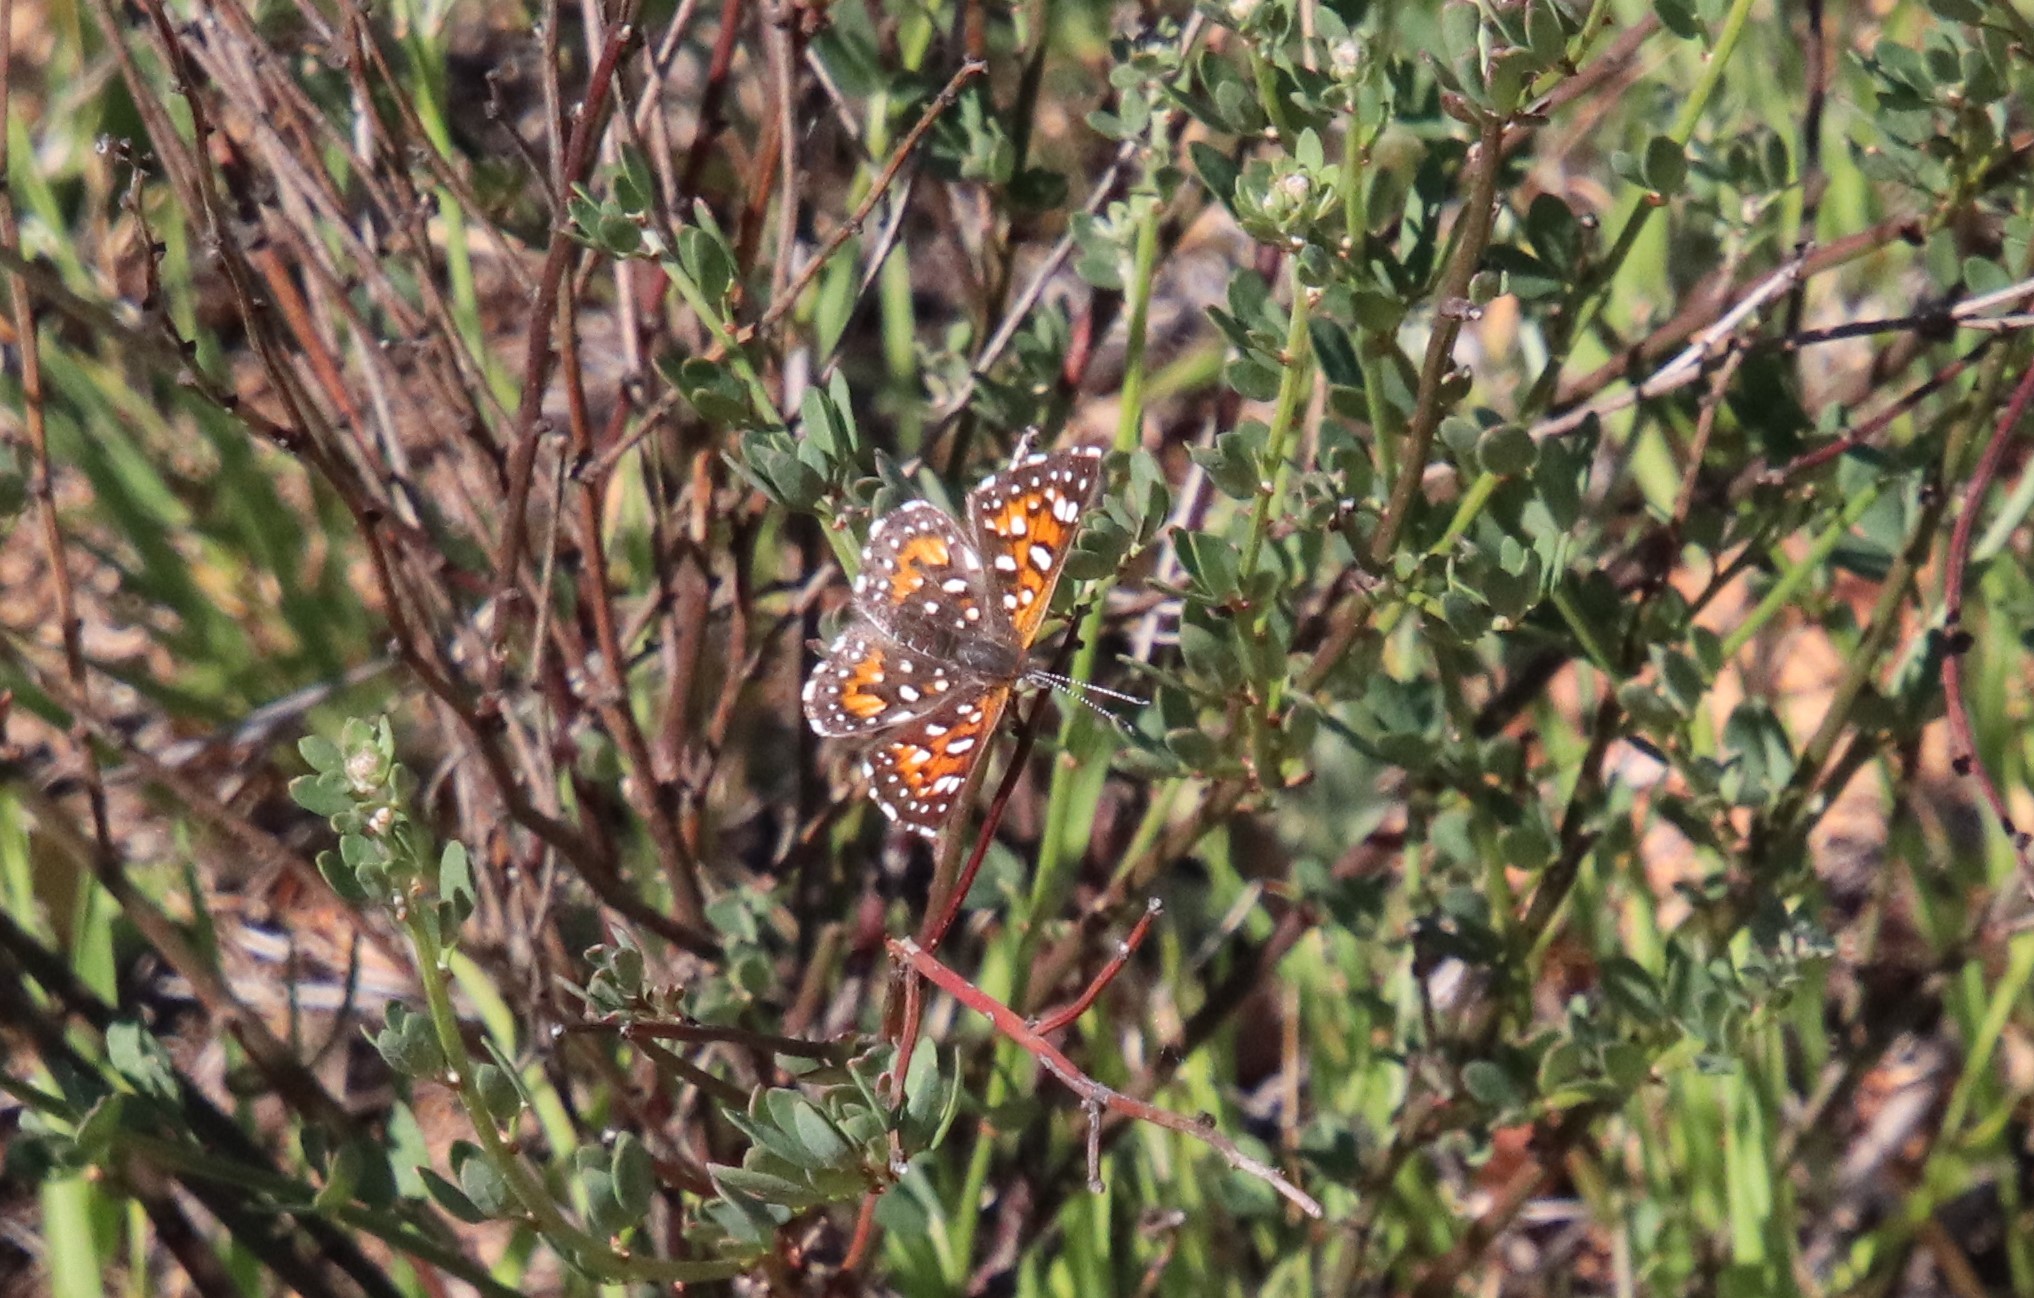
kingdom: Animalia
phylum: Arthropoda
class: Insecta
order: Lepidoptera
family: Riodinidae
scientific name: Riodinidae
